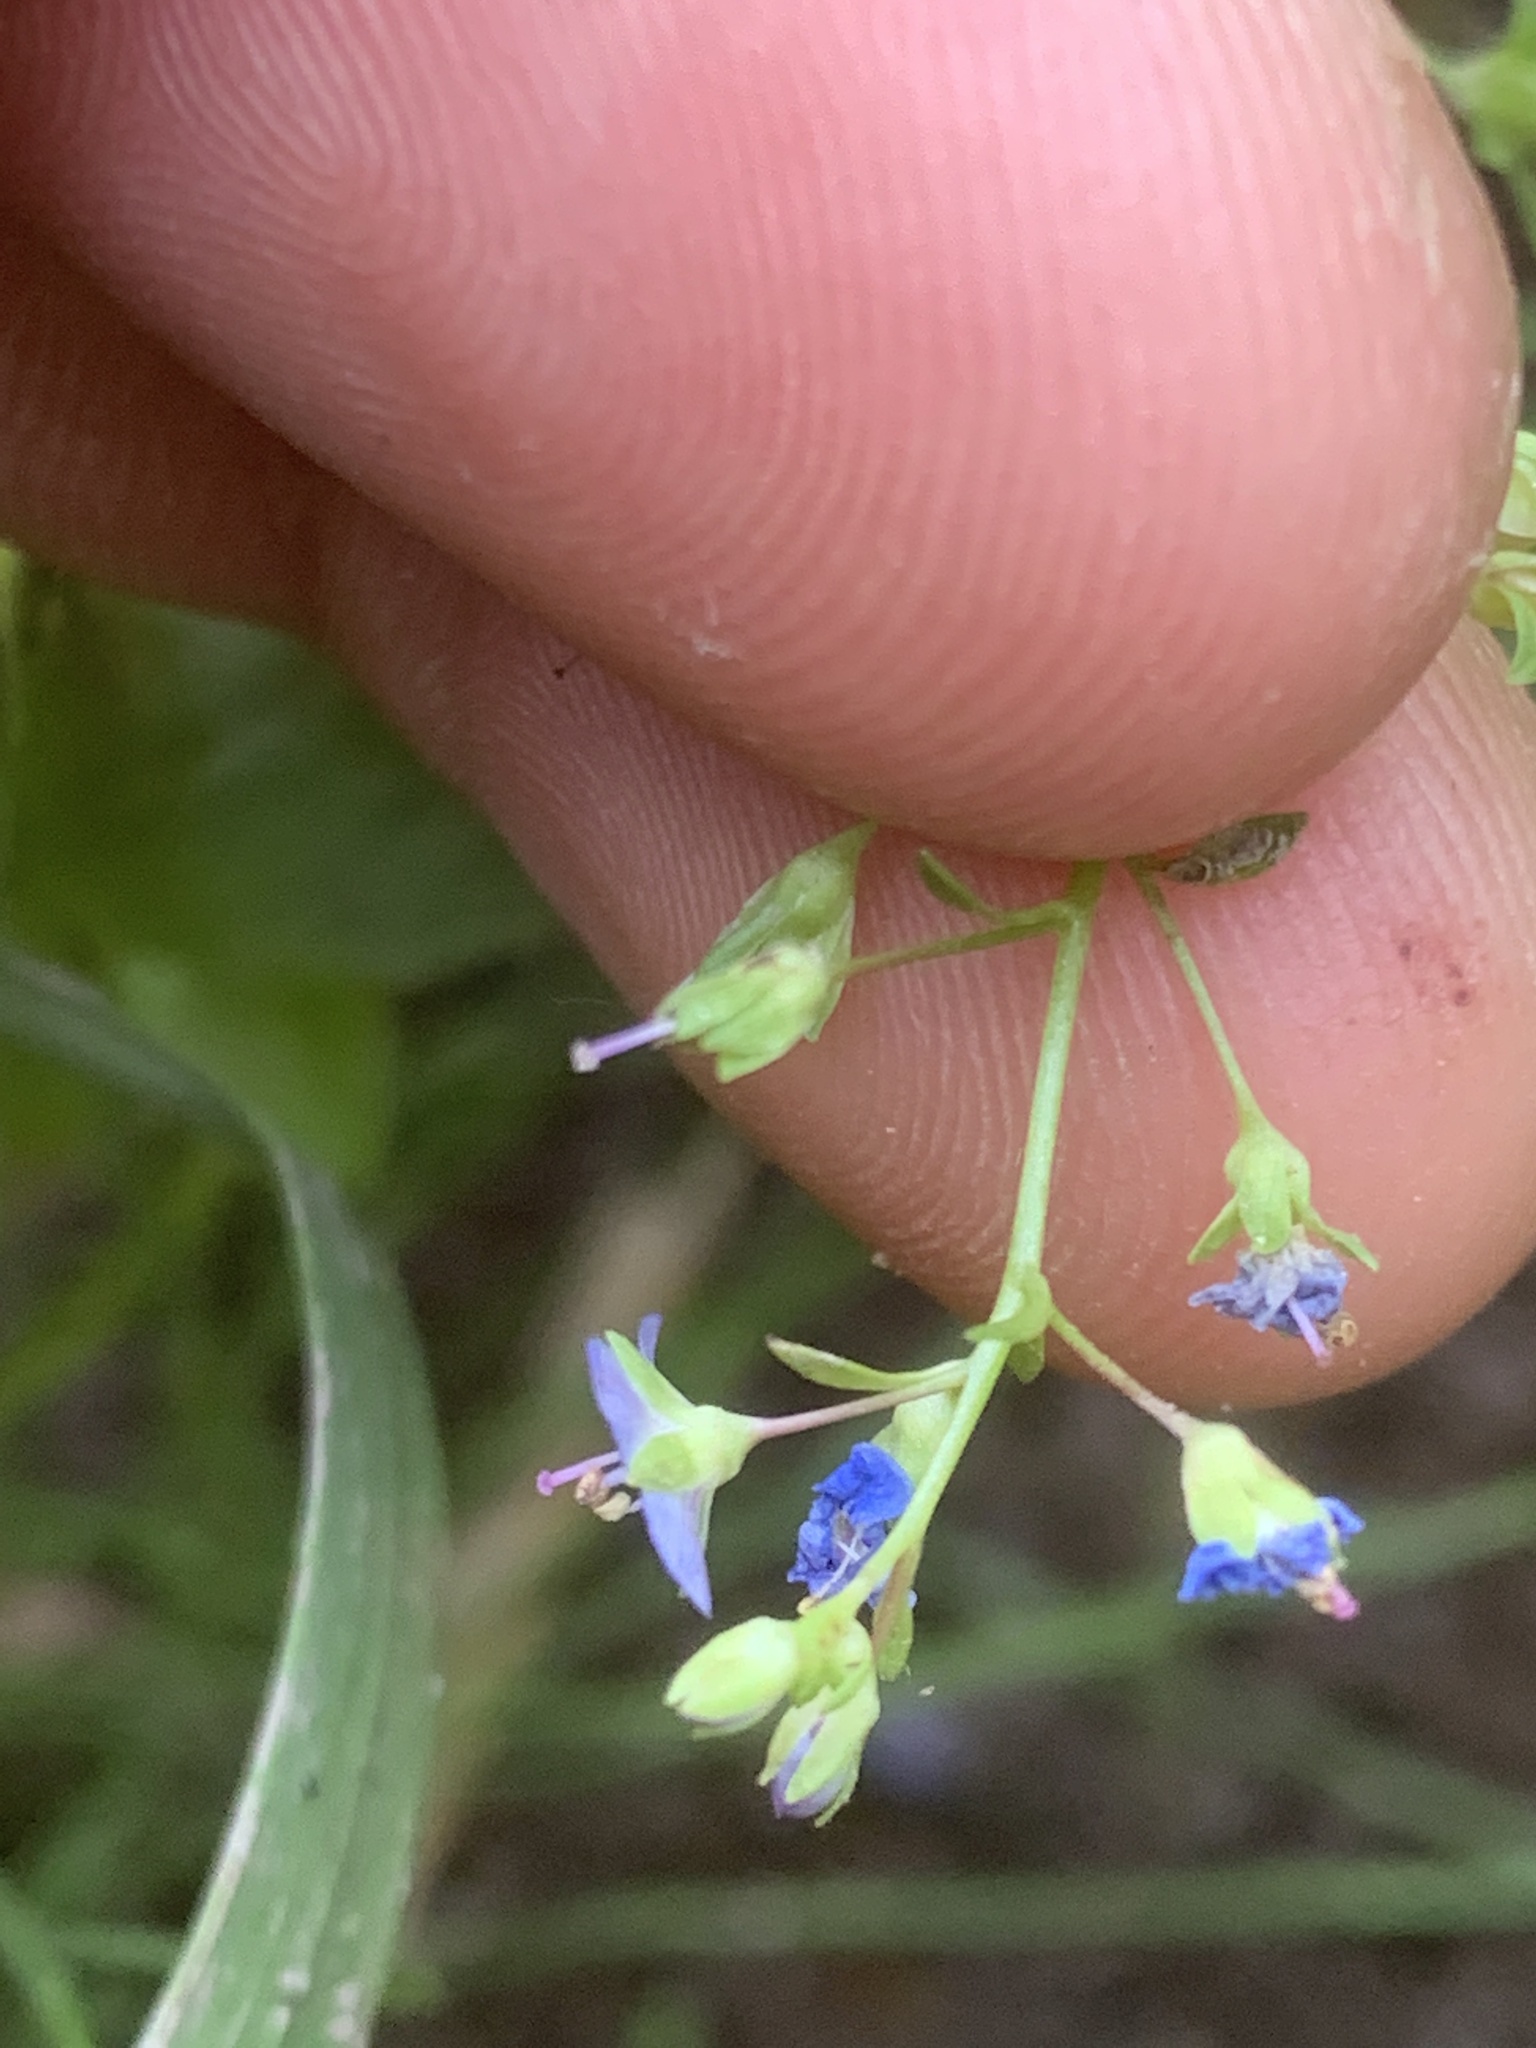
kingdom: Plantae
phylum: Tracheophyta
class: Magnoliopsida
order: Lamiales
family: Plantaginaceae
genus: Veronica
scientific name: Veronica americana
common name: American brooklime
